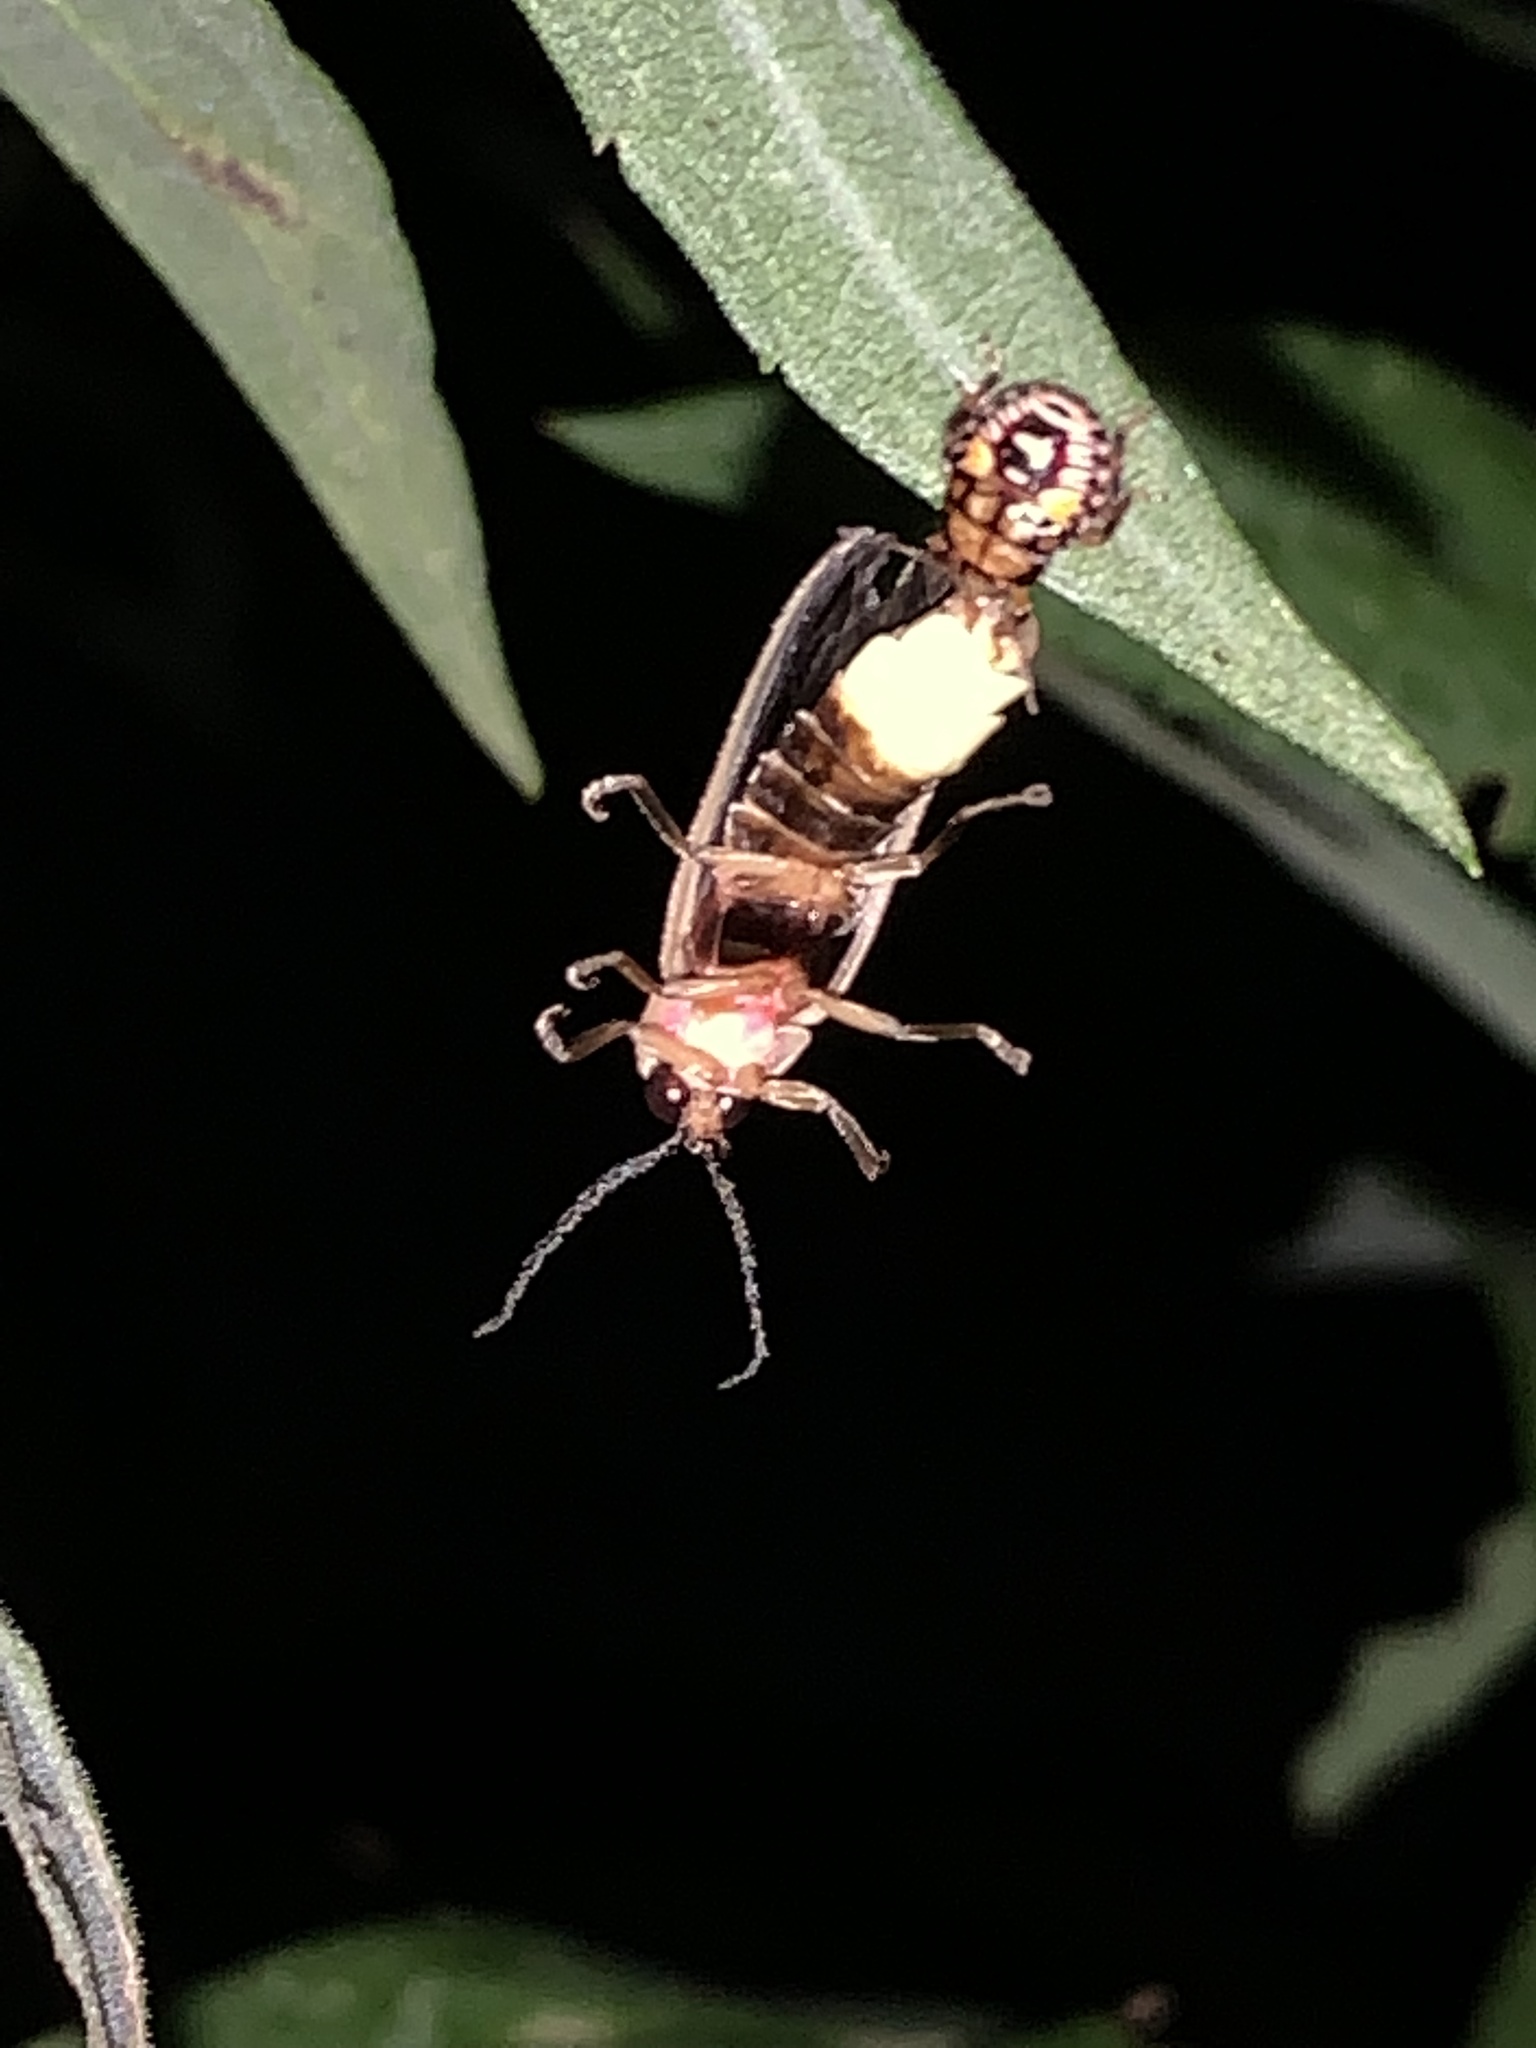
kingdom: Animalia
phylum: Arthropoda
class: Insecta
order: Hemiptera
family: Pentatomidae
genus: Podisus
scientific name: Podisus
